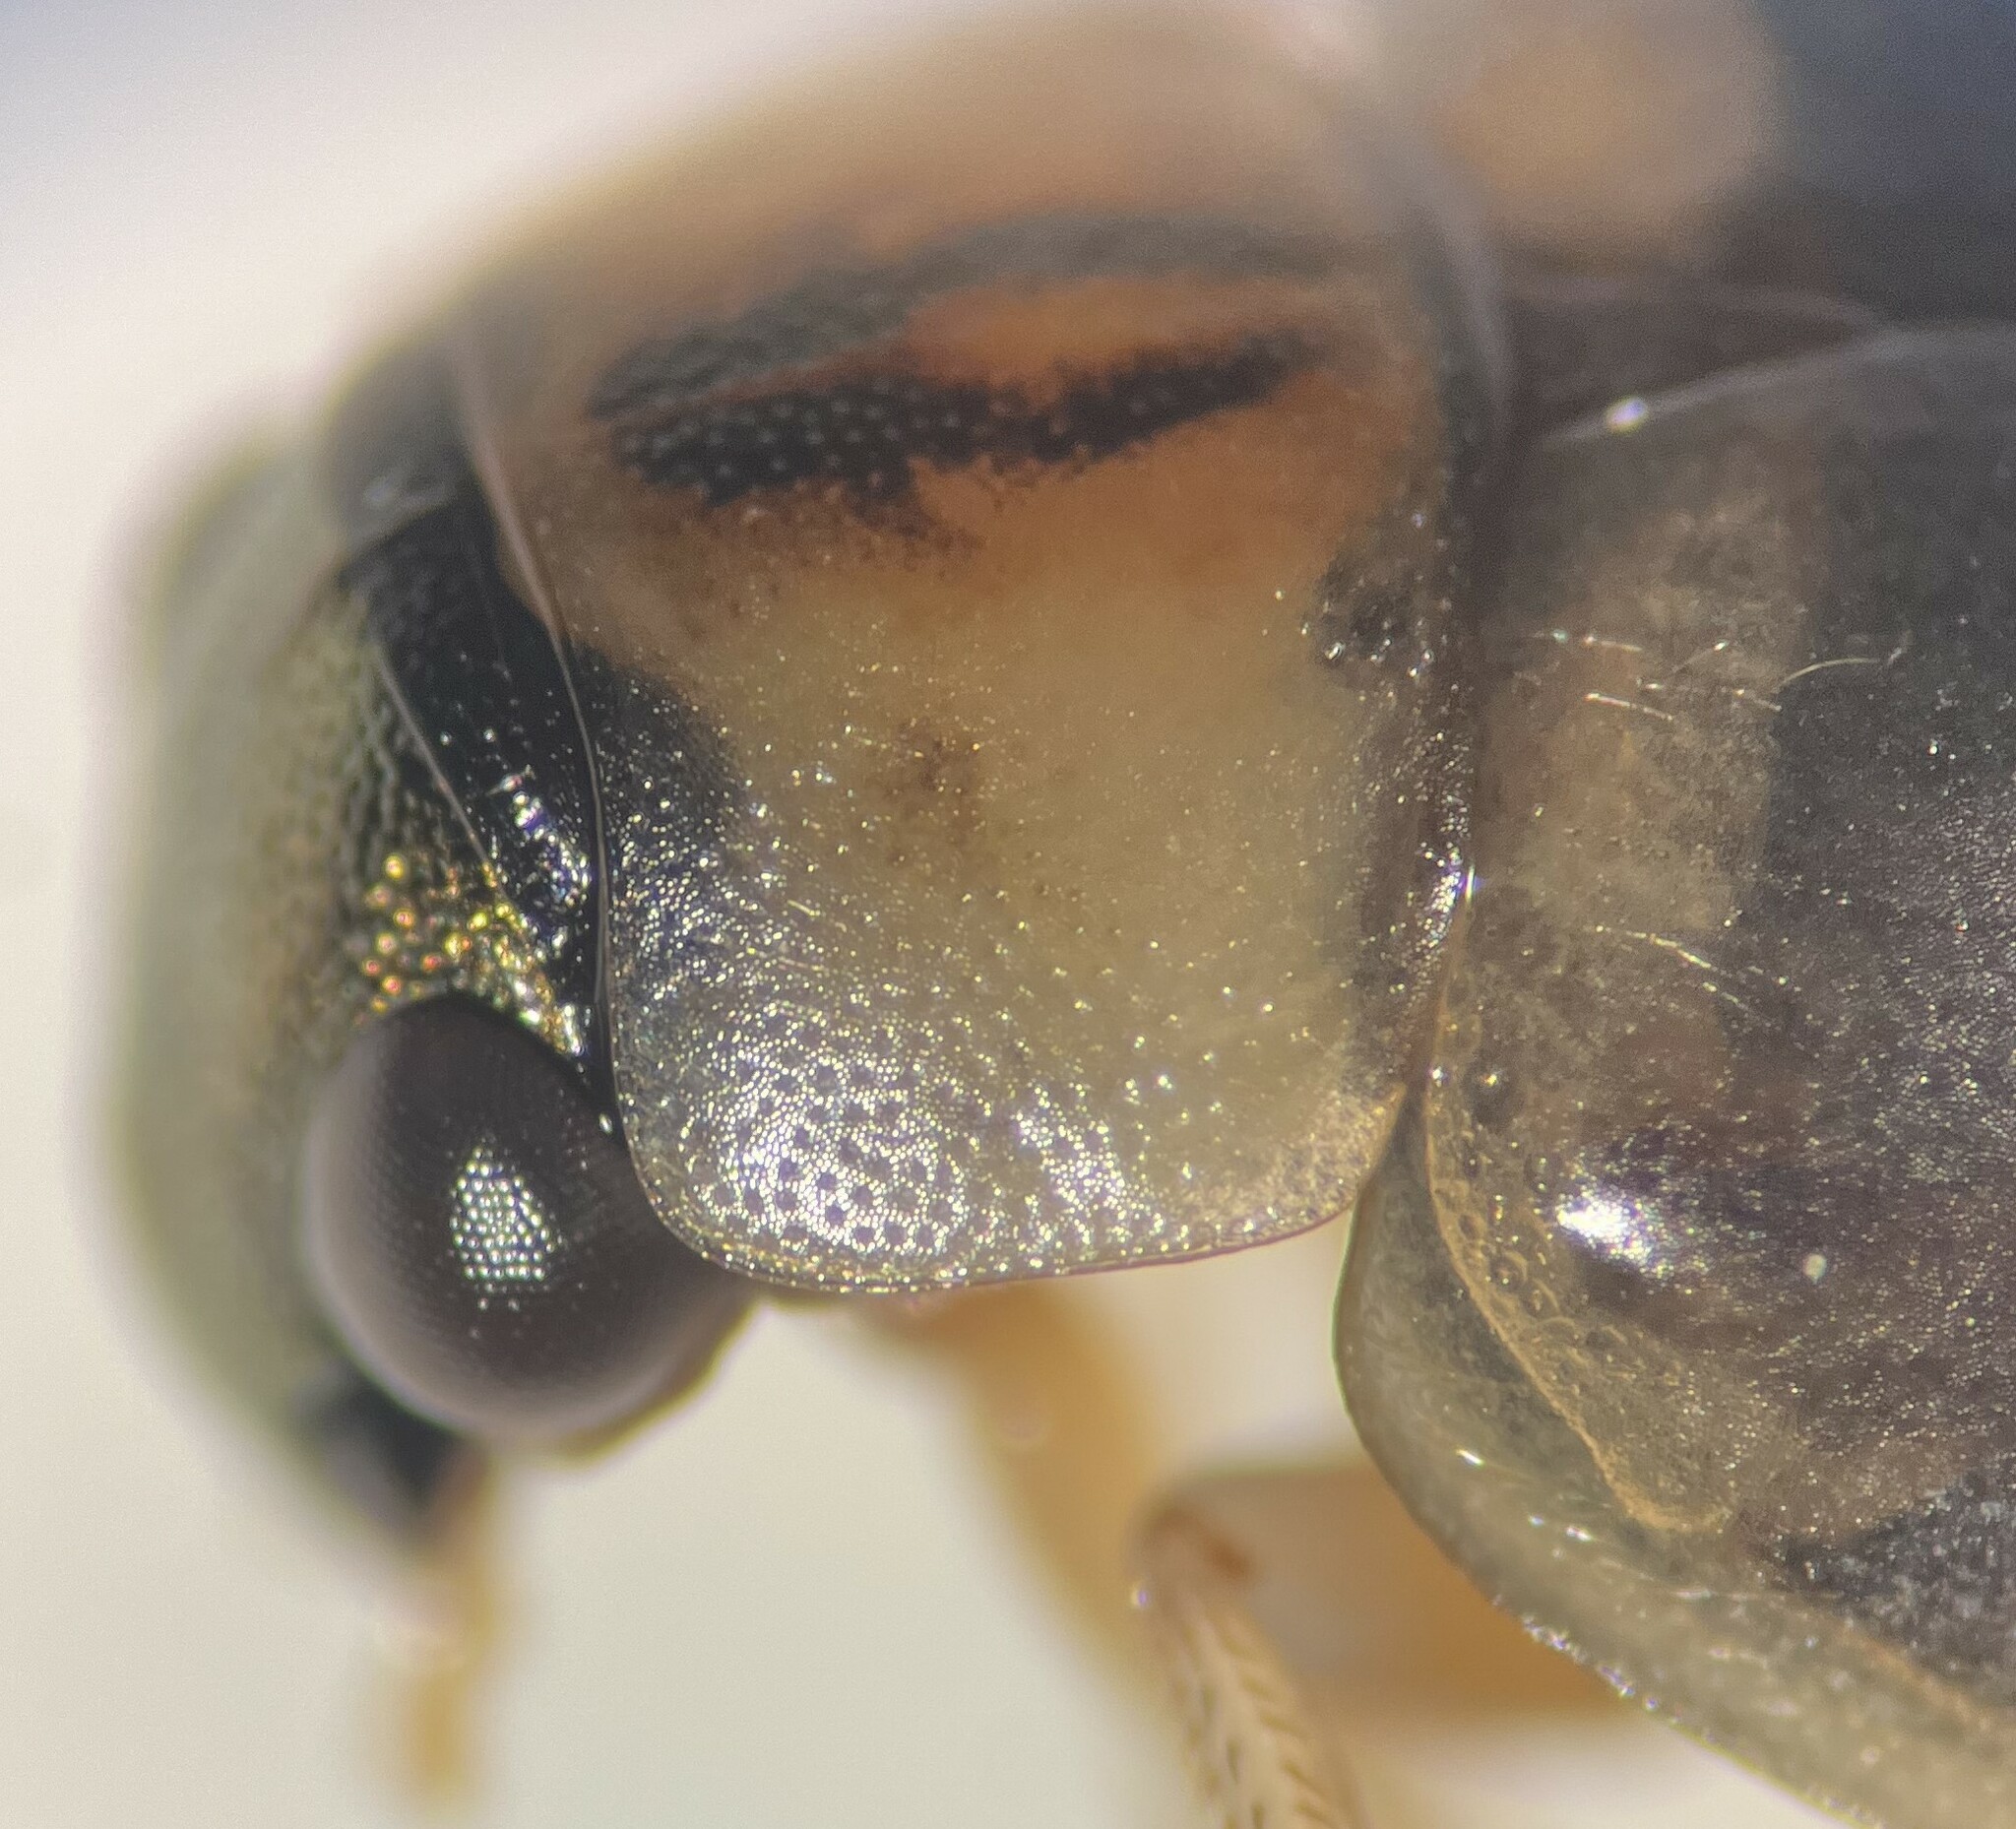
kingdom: Animalia
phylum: Arthropoda
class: Insecta
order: Coleoptera
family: Hydrophilidae
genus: Berosus
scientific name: Berosus infuscatus
